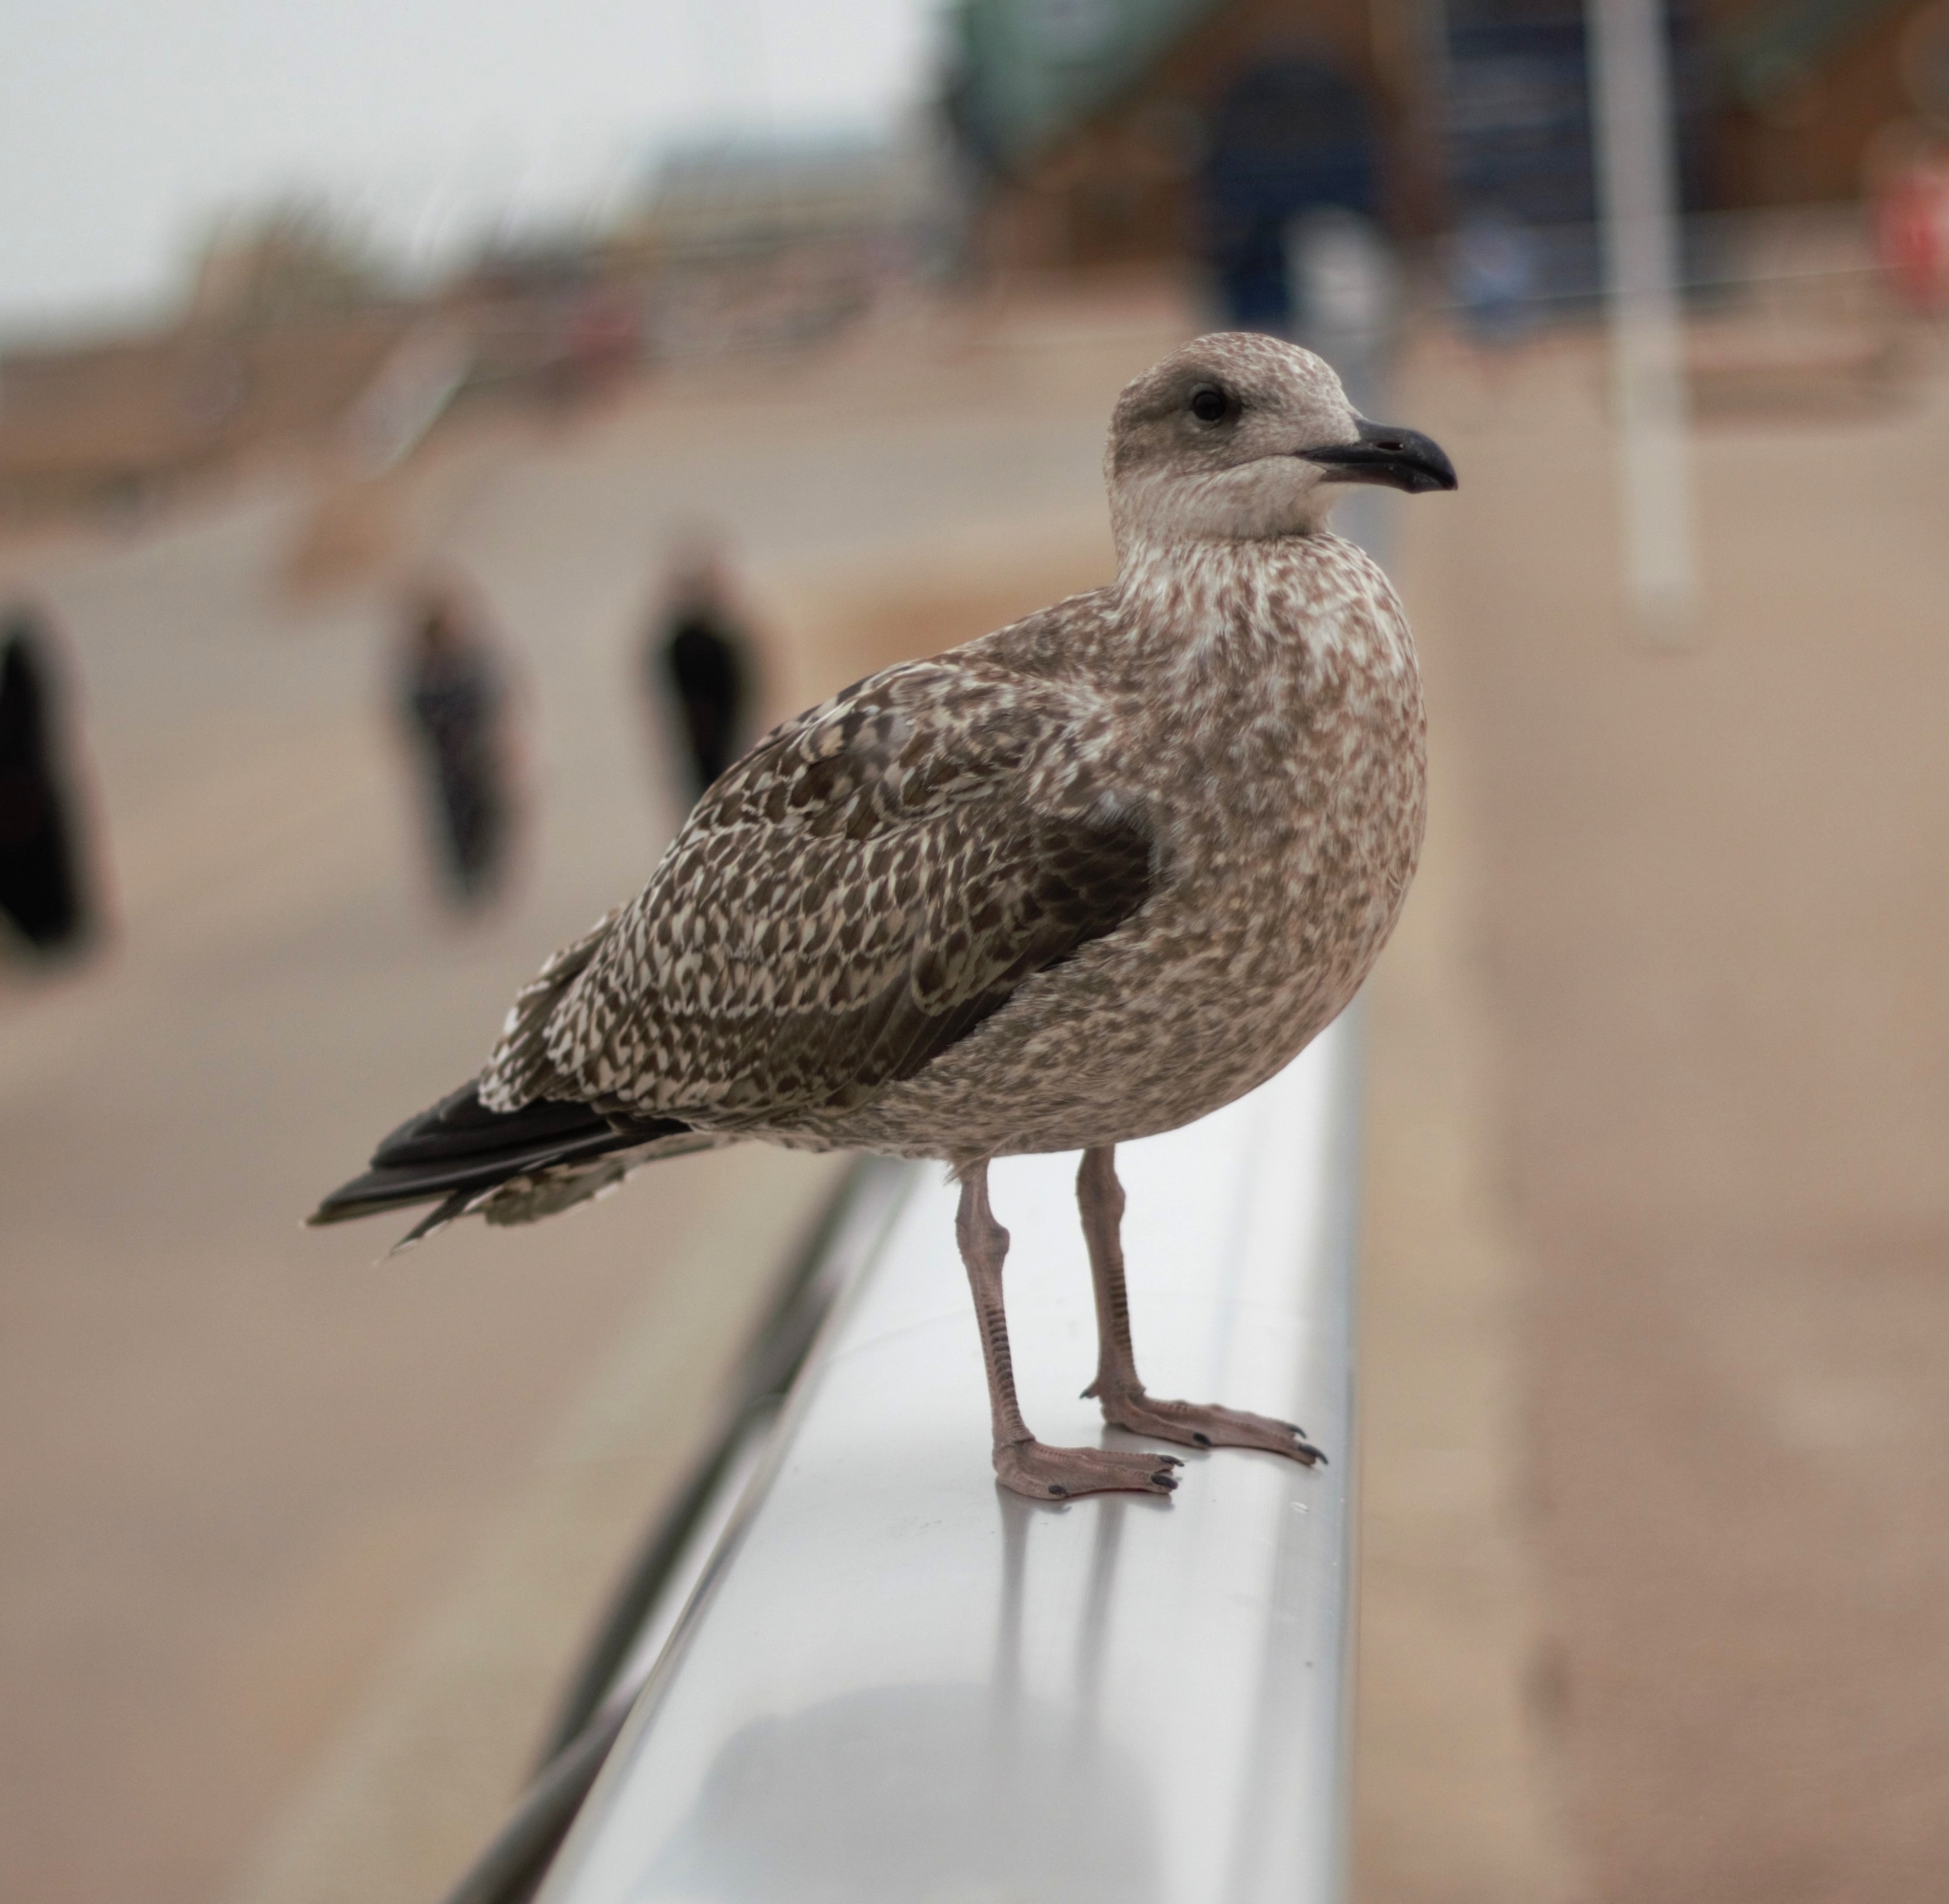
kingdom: Animalia
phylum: Chordata
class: Aves
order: Charadriiformes
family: Laridae
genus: Larus
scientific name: Larus argentatus
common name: Herring gull
